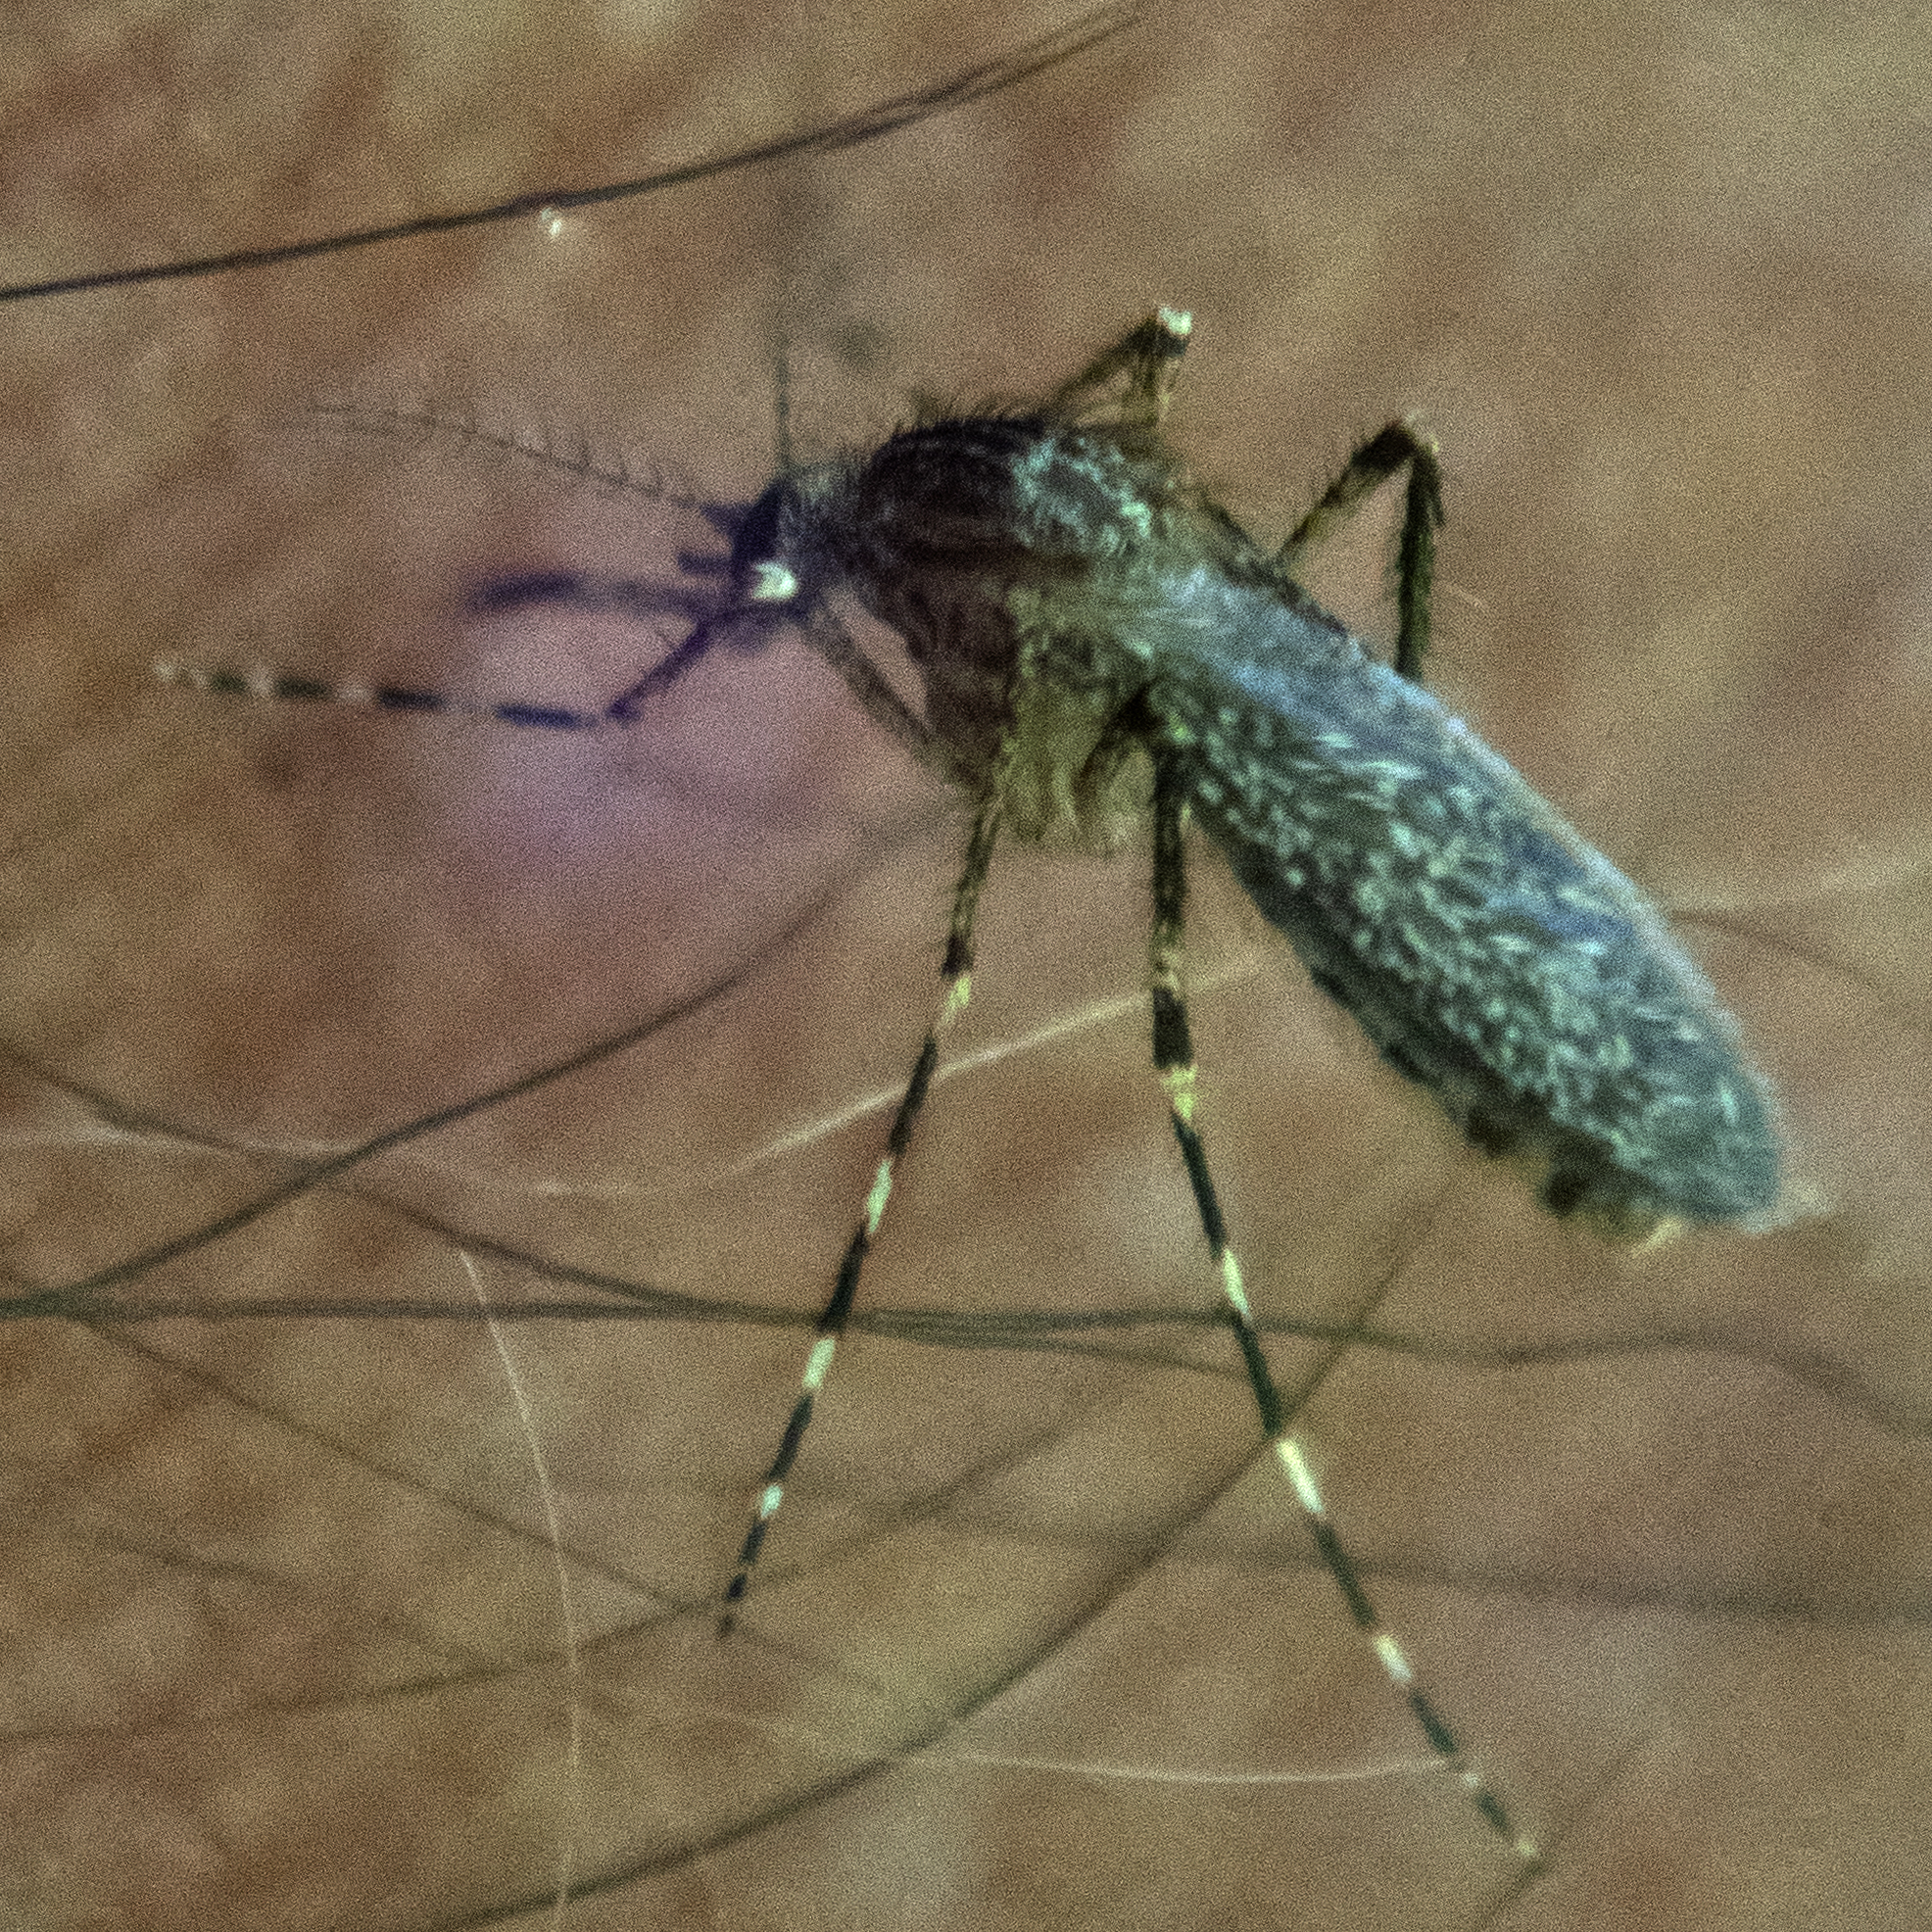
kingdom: Animalia
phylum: Arthropoda
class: Insecta
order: Diptera
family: Culicidae
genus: Coquillettidia
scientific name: Coquillettidia perturbans
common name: Cattail mosquito
